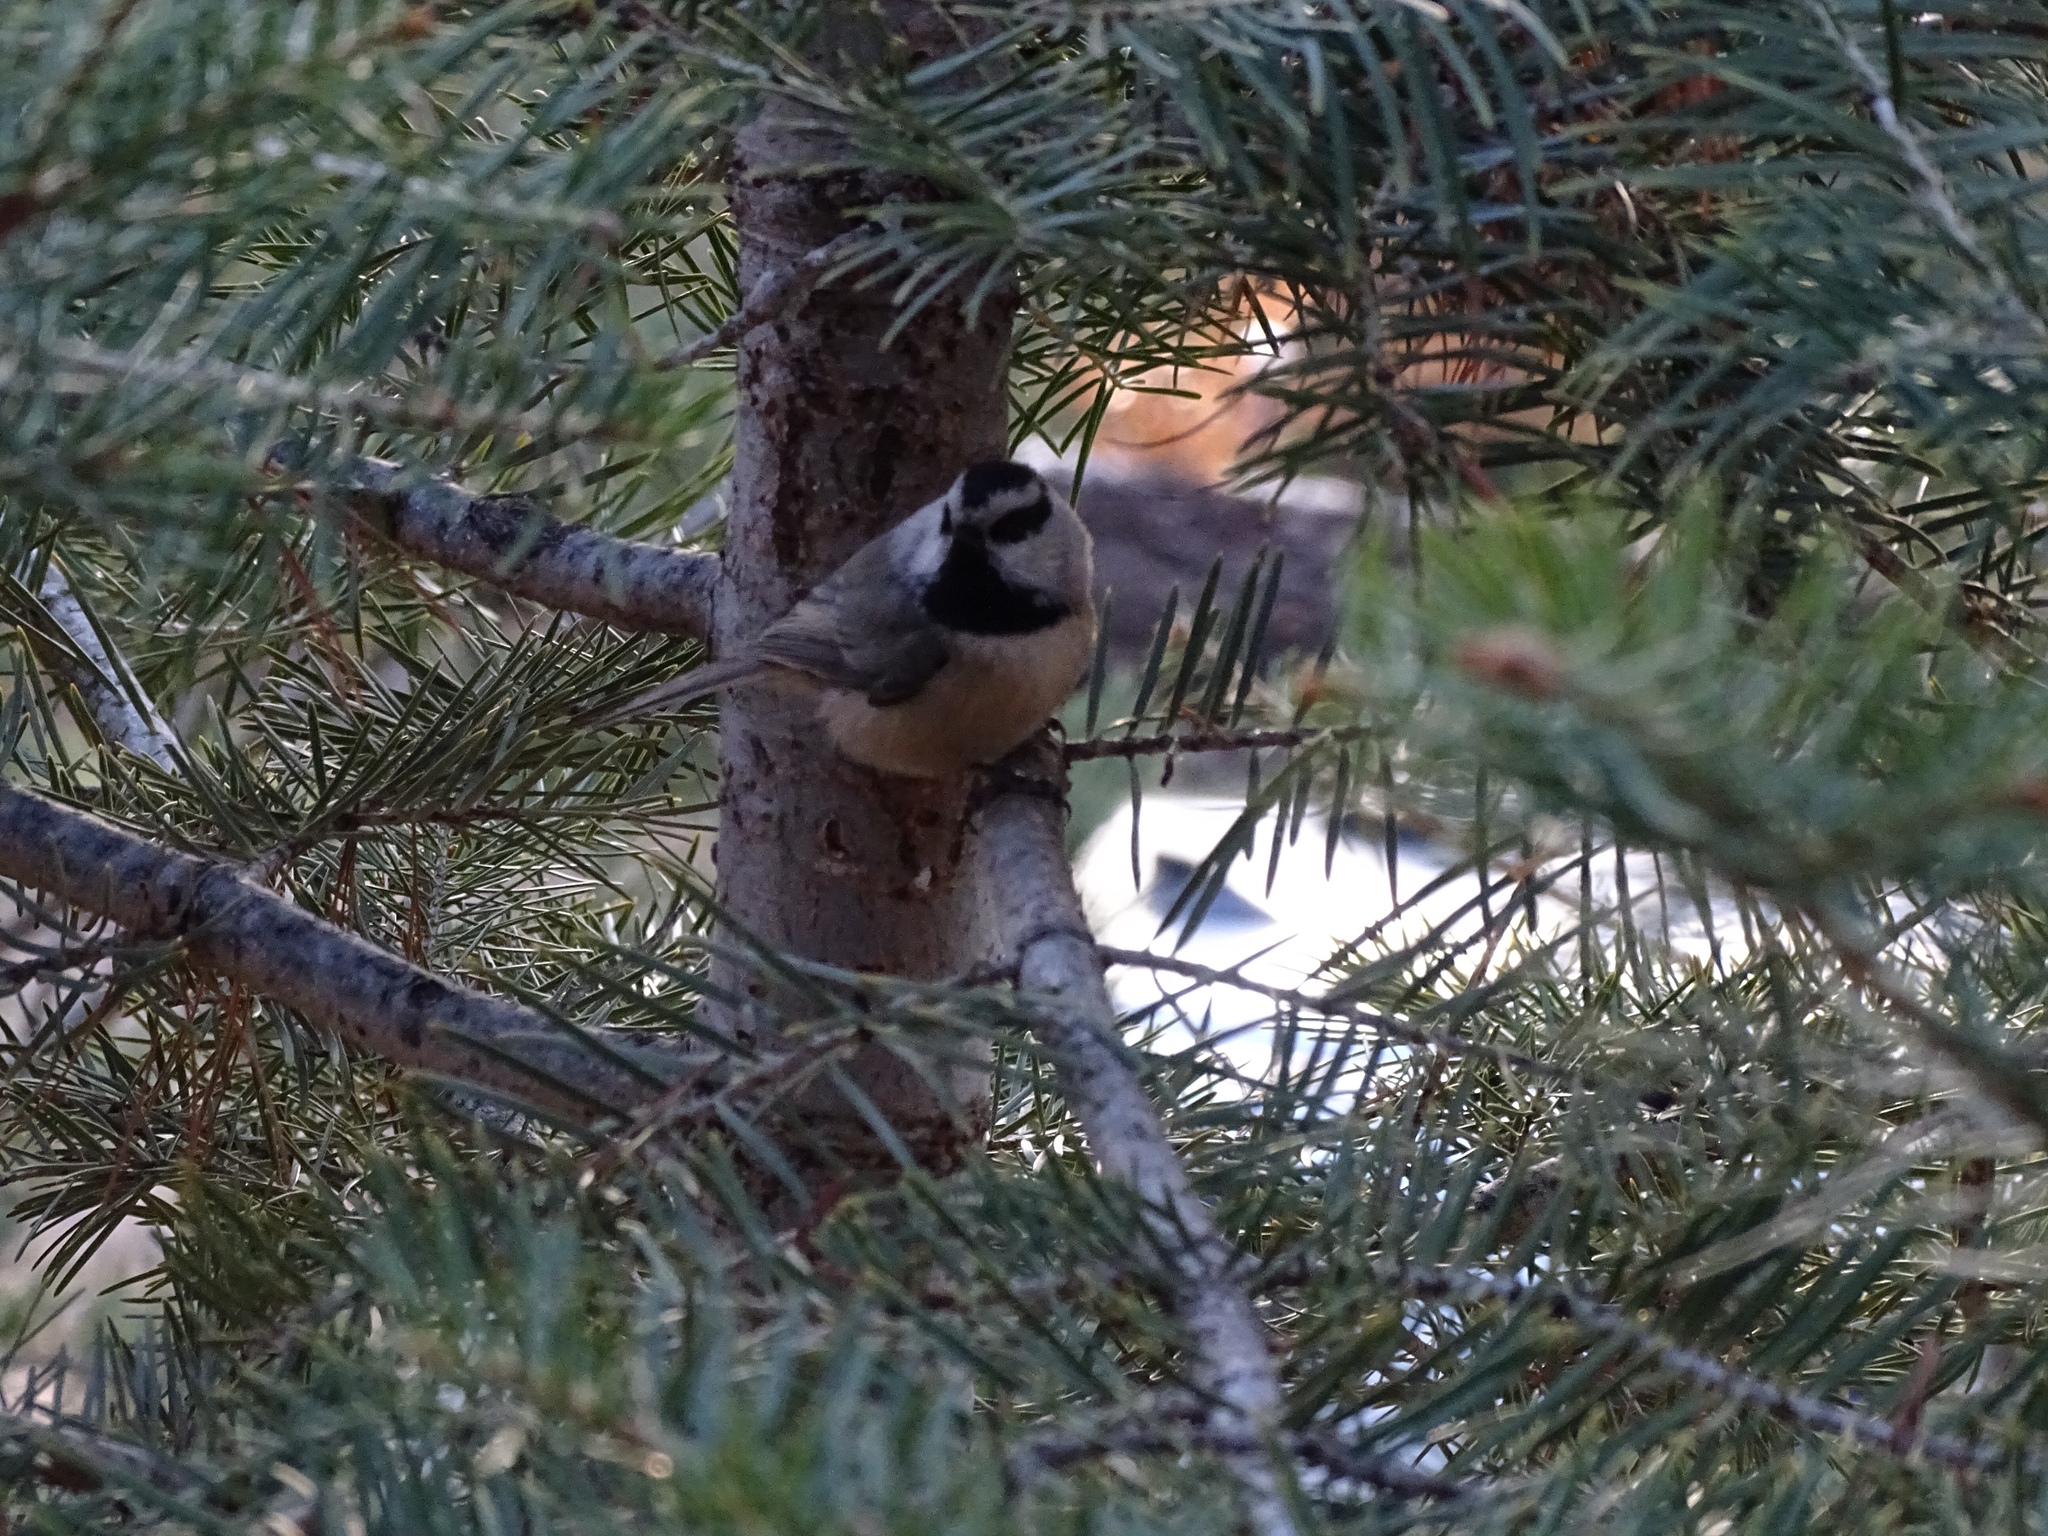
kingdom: Animalia
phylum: Chordata
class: Aves
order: Passeriformes
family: Paridae
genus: Poecile
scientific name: Poecile gambeli
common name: Mountain chickadee
